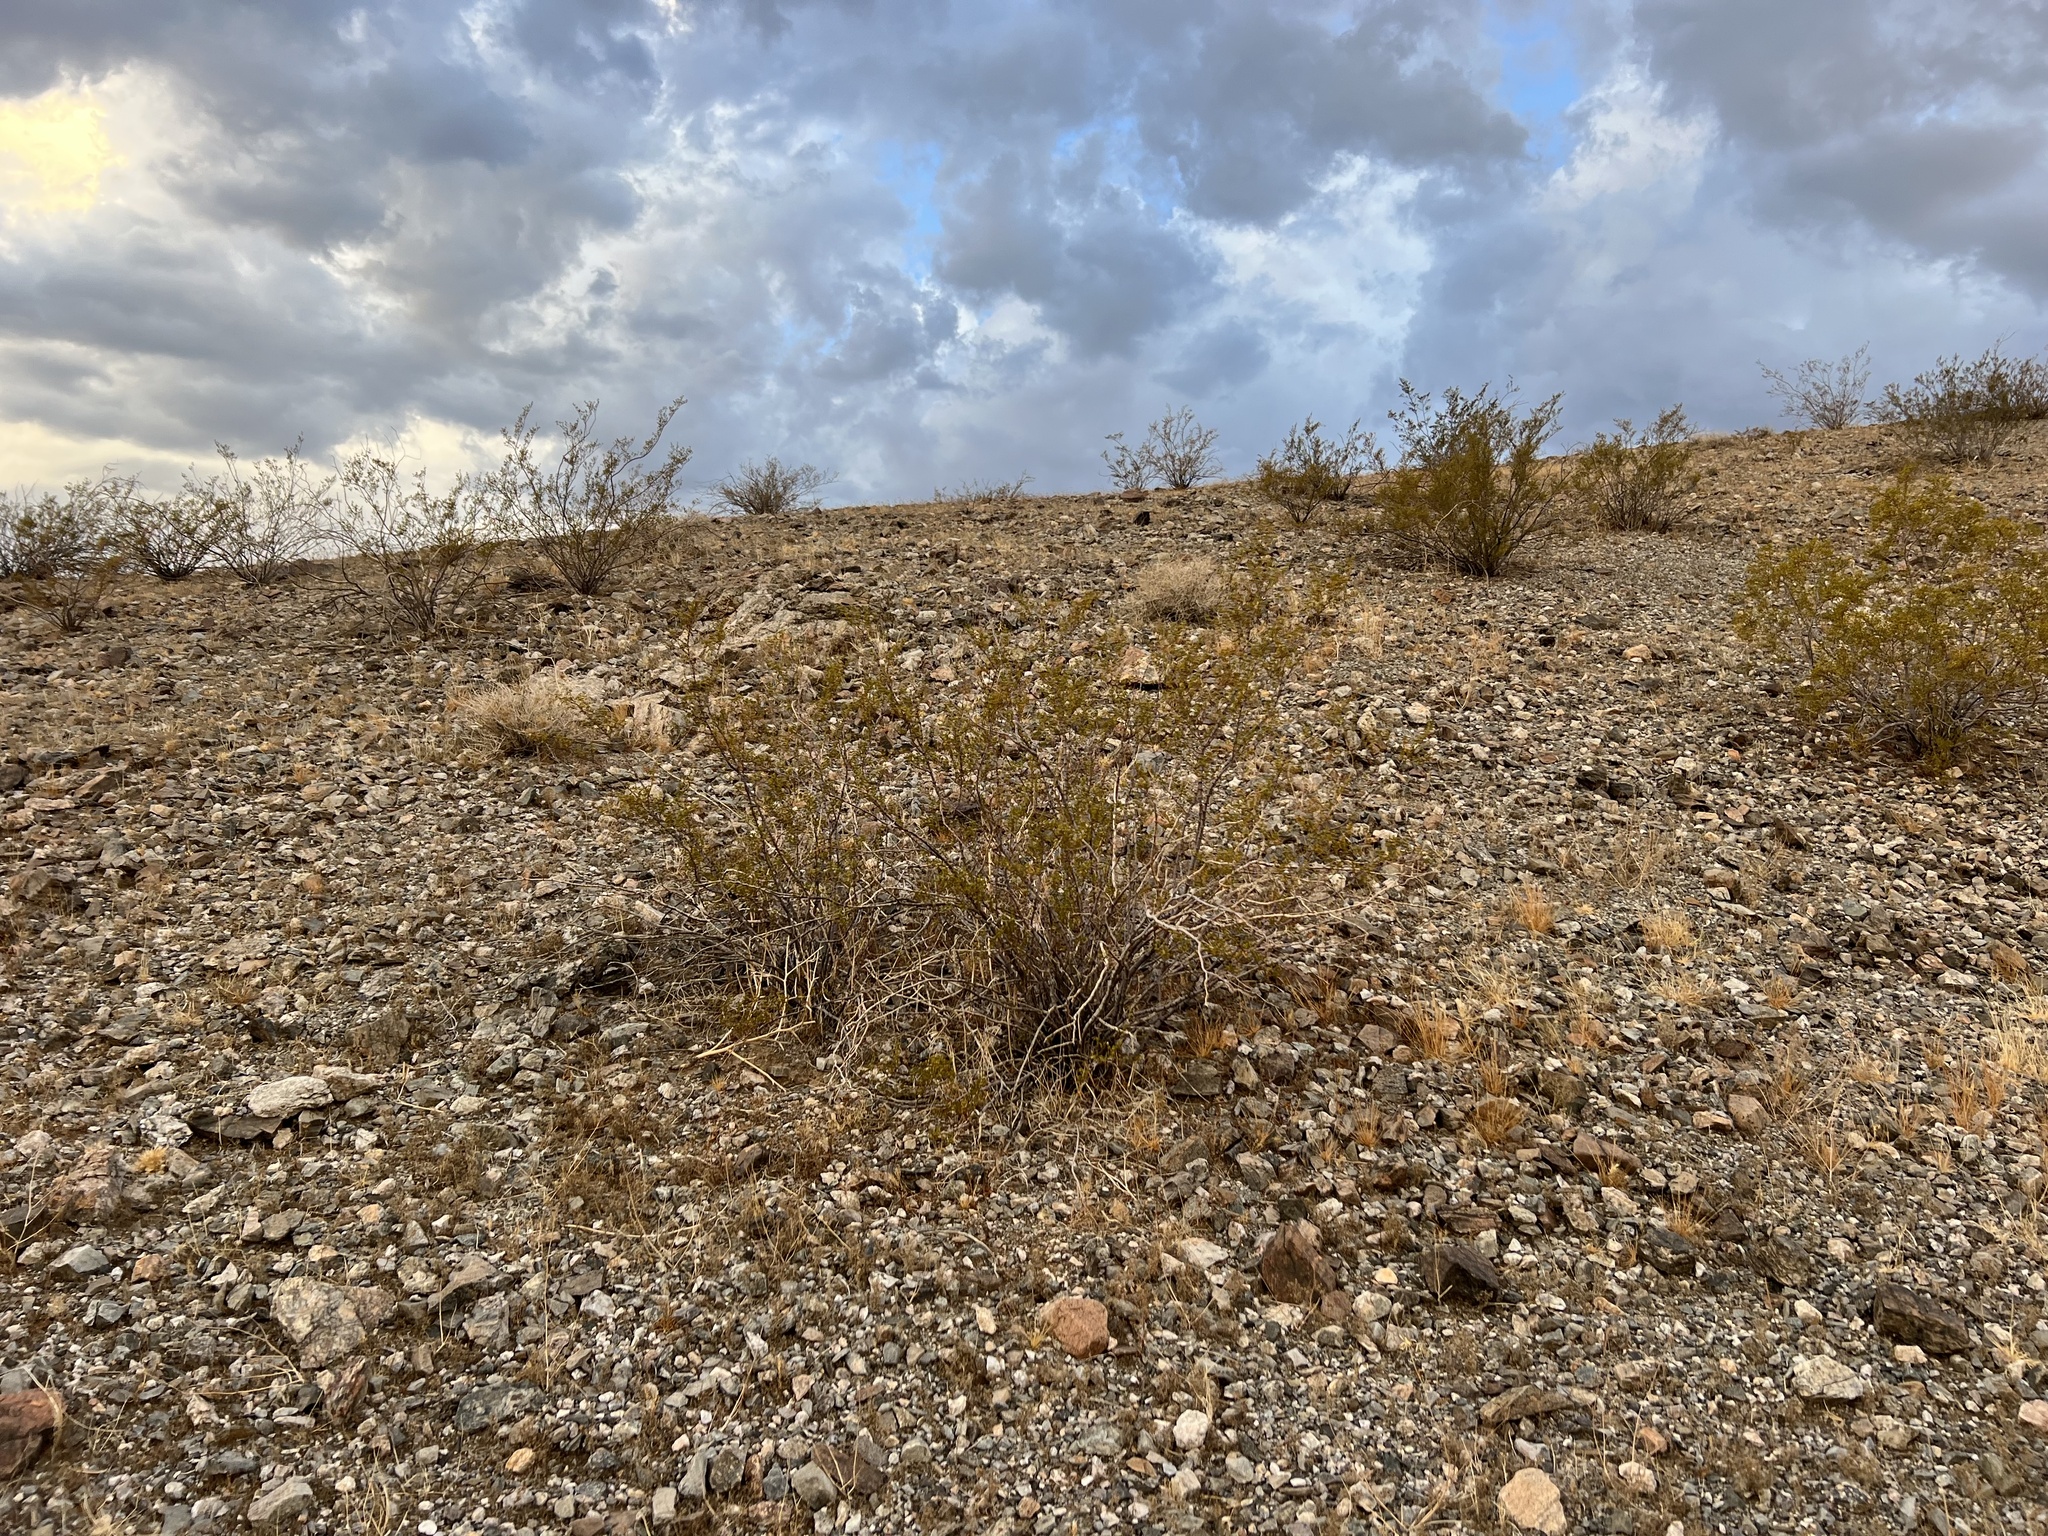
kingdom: Plantae
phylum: Tracheophyta
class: Magnoliopsida
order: Zygophyllales
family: Zygophyllaceae
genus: Larrea
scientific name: Larrea tridentata
